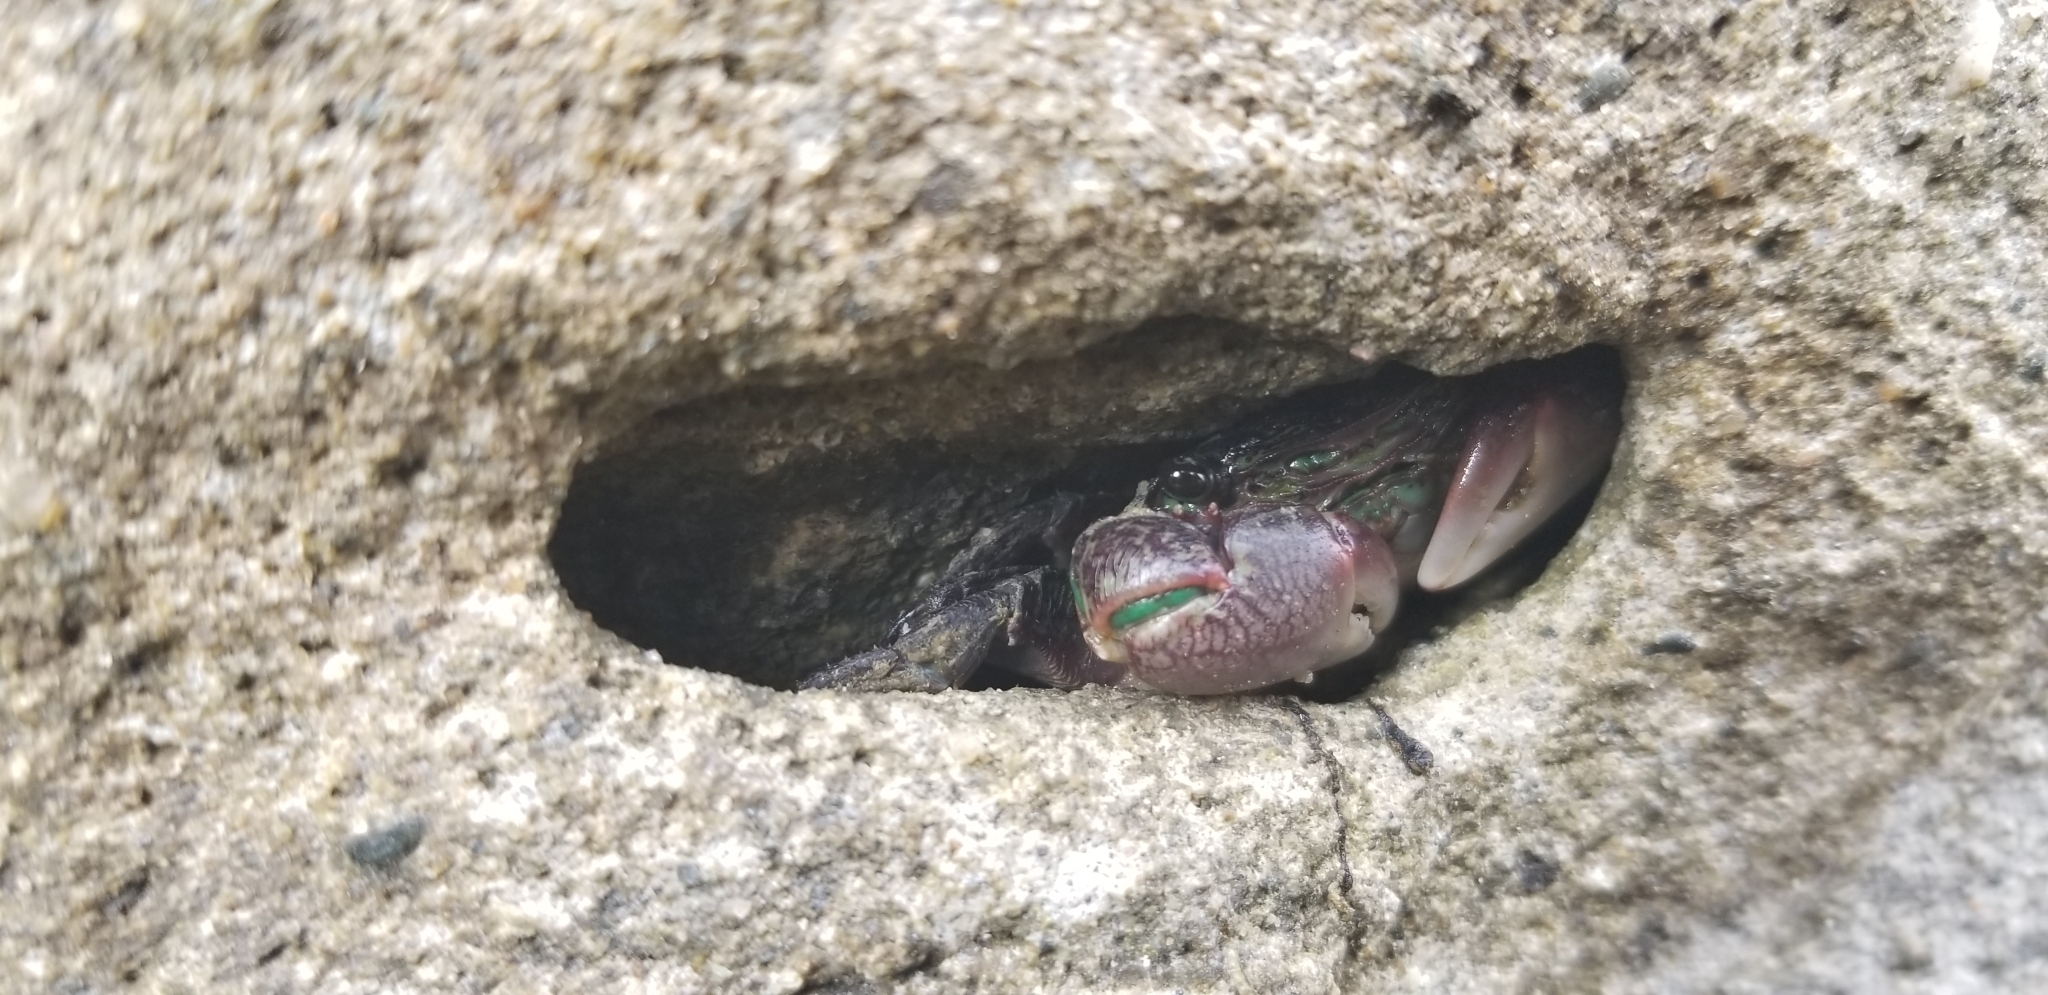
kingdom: Animalia
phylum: Arthropoda
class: Malacostraca
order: Decapoda
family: Grapsidae
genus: Pachygrapsus
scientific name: Pachygrapsus crassipes
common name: Striped shore crab
